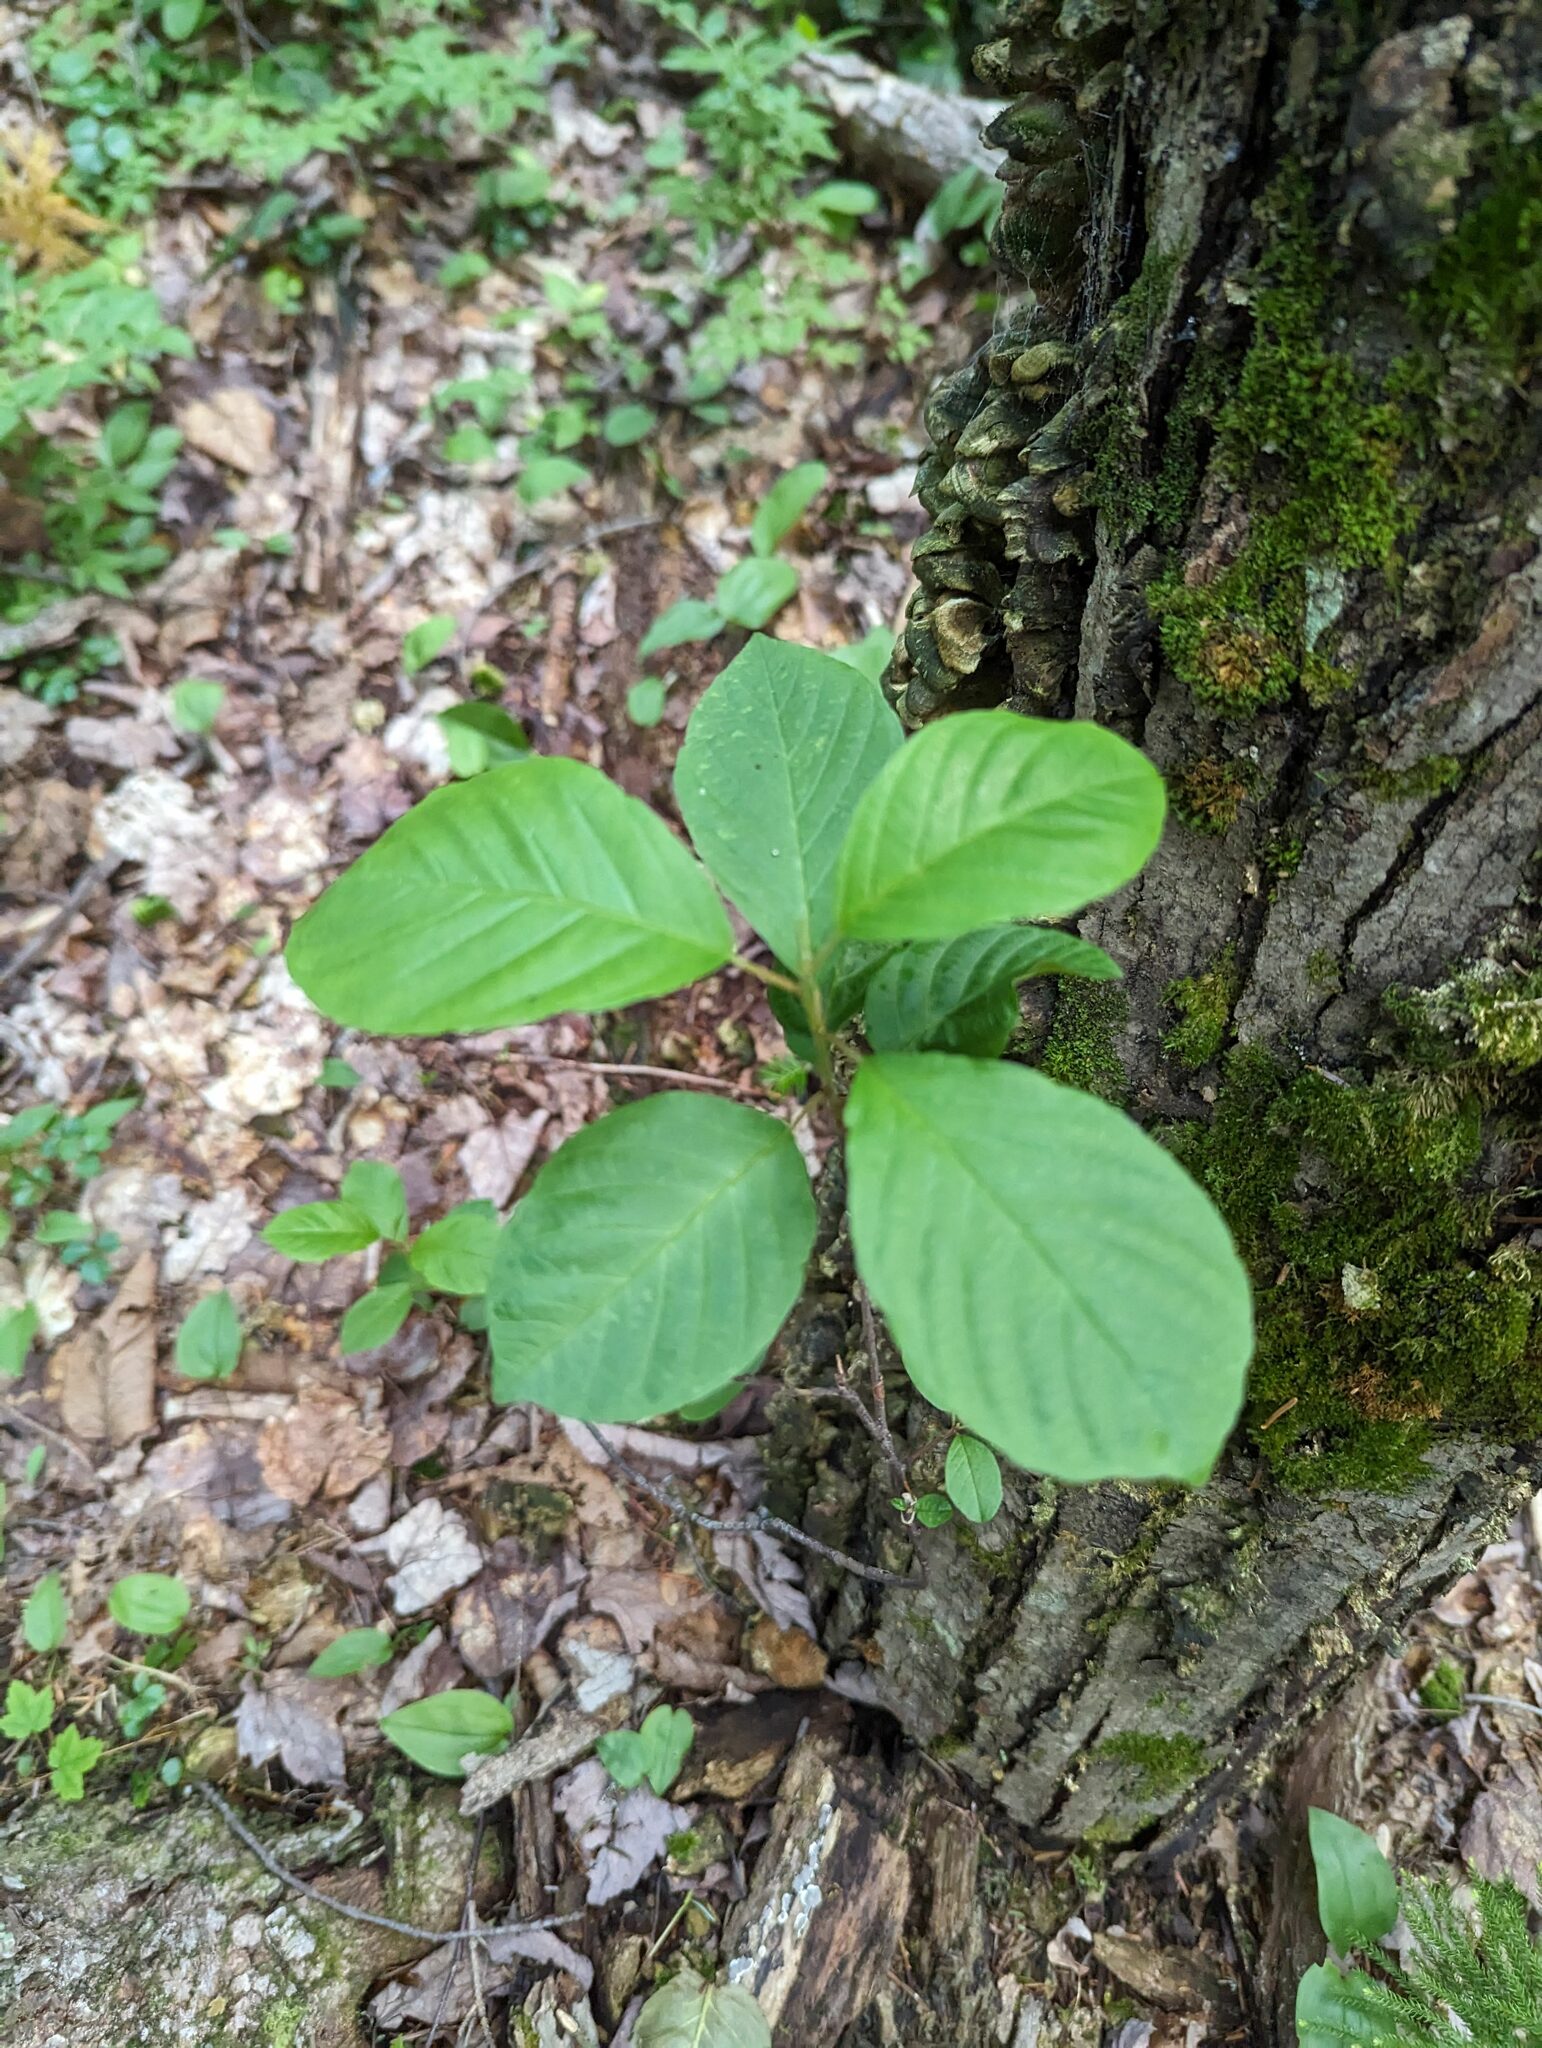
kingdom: Plantae
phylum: Tracheophyta
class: Magnoliopsida
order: Rosales
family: Rhamnaceae
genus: Frangula
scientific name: Frangula alnus
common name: Alder buckthorn
